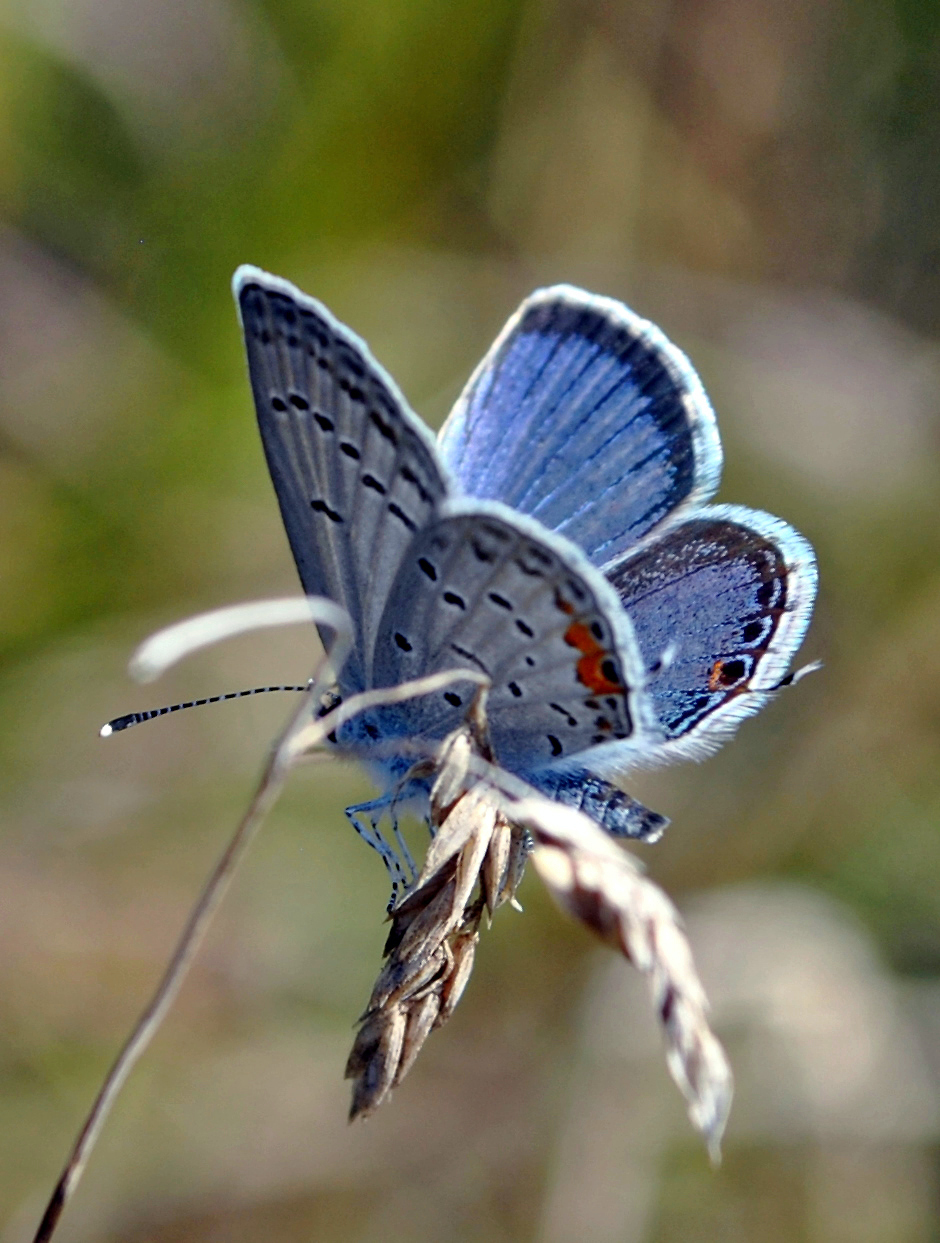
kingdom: Animalia
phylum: Arthropoda
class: Insecta
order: Lepidoptera
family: Lycaenidae
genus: Elkalyce
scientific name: Elkalyce comyntas
